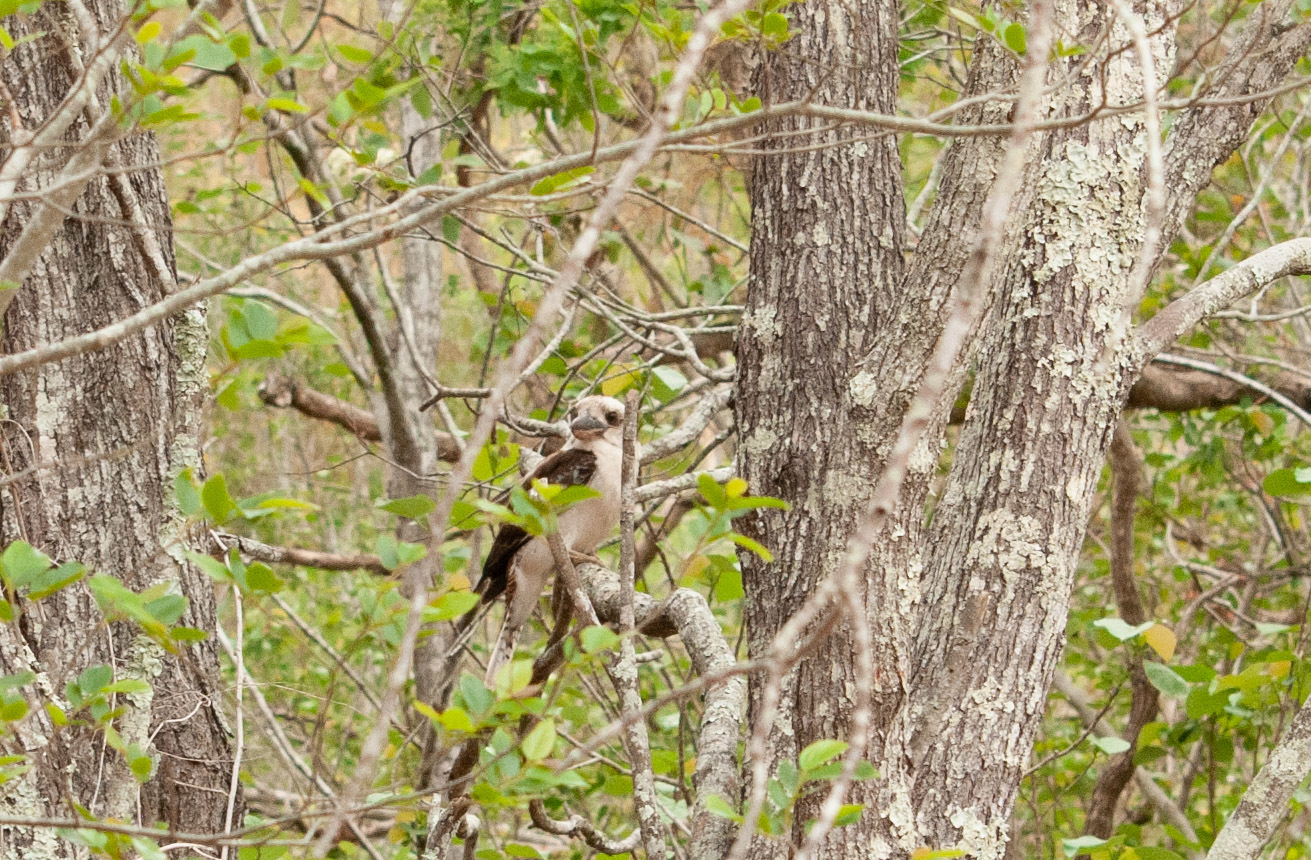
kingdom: Animalia
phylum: Chordata
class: Aves
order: Coraciiformes
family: Alcedinidae
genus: Dacelo
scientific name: Dacelo novaeguineae
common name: Laughing kookaburra
